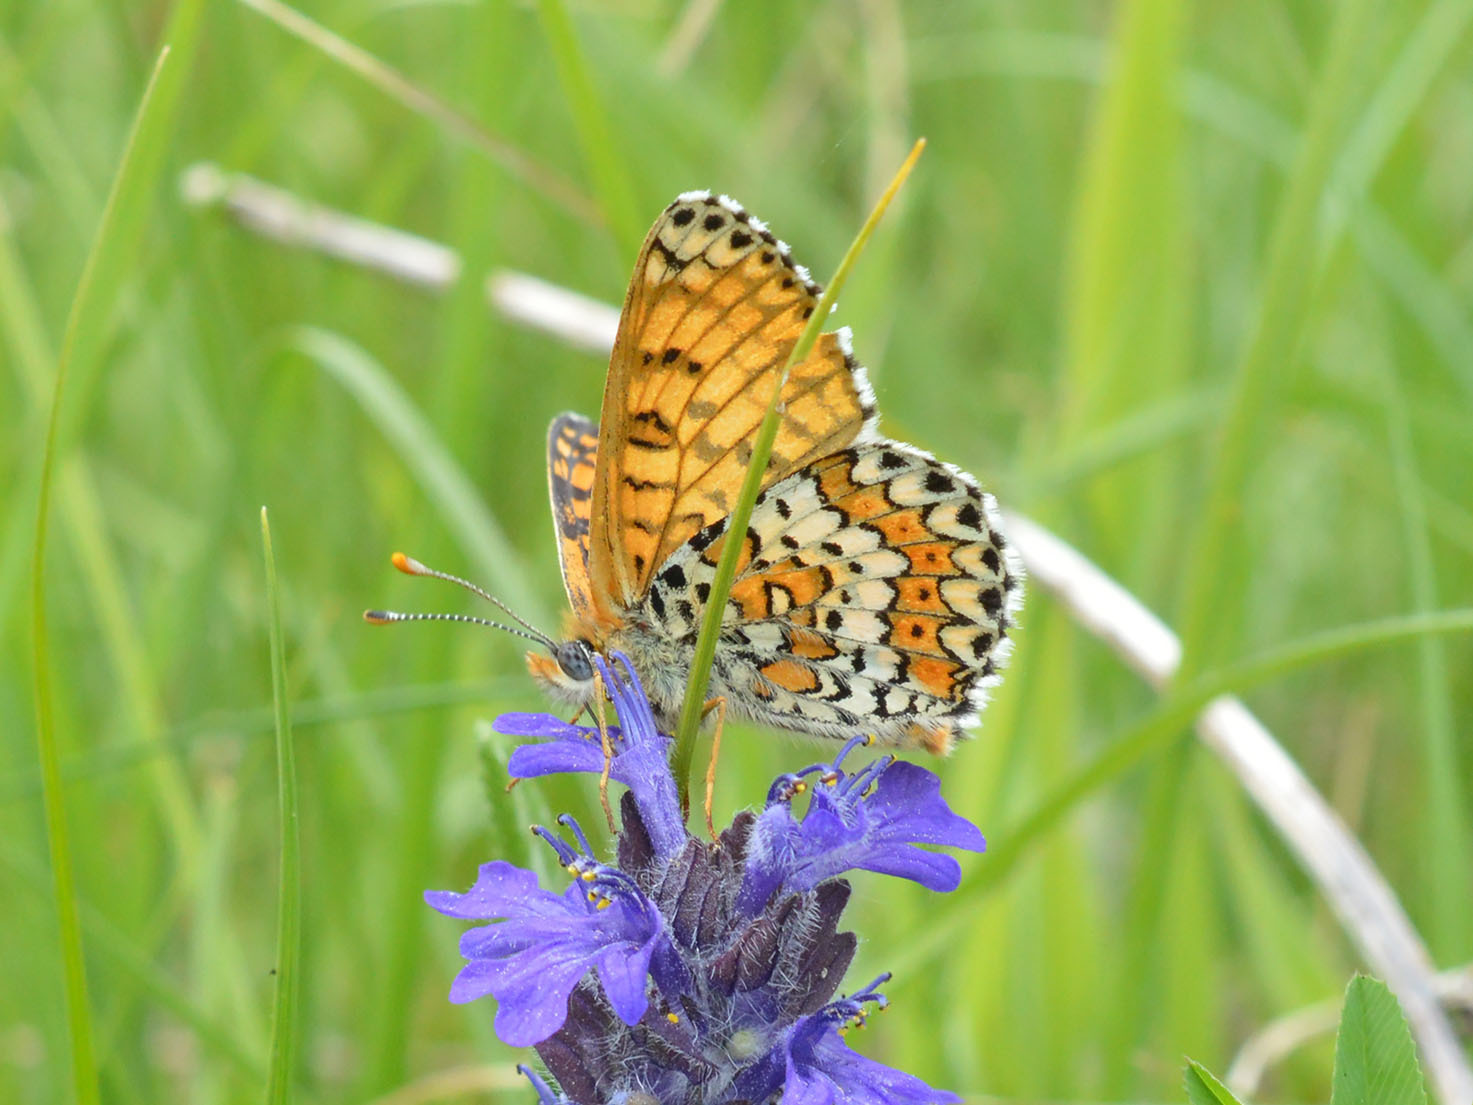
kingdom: Animalia
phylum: Arthropoda
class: Insecta
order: Lepidoptera
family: Nymphalidae
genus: Melitaea
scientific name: Melitaea cinxia
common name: Glanville fritillary
